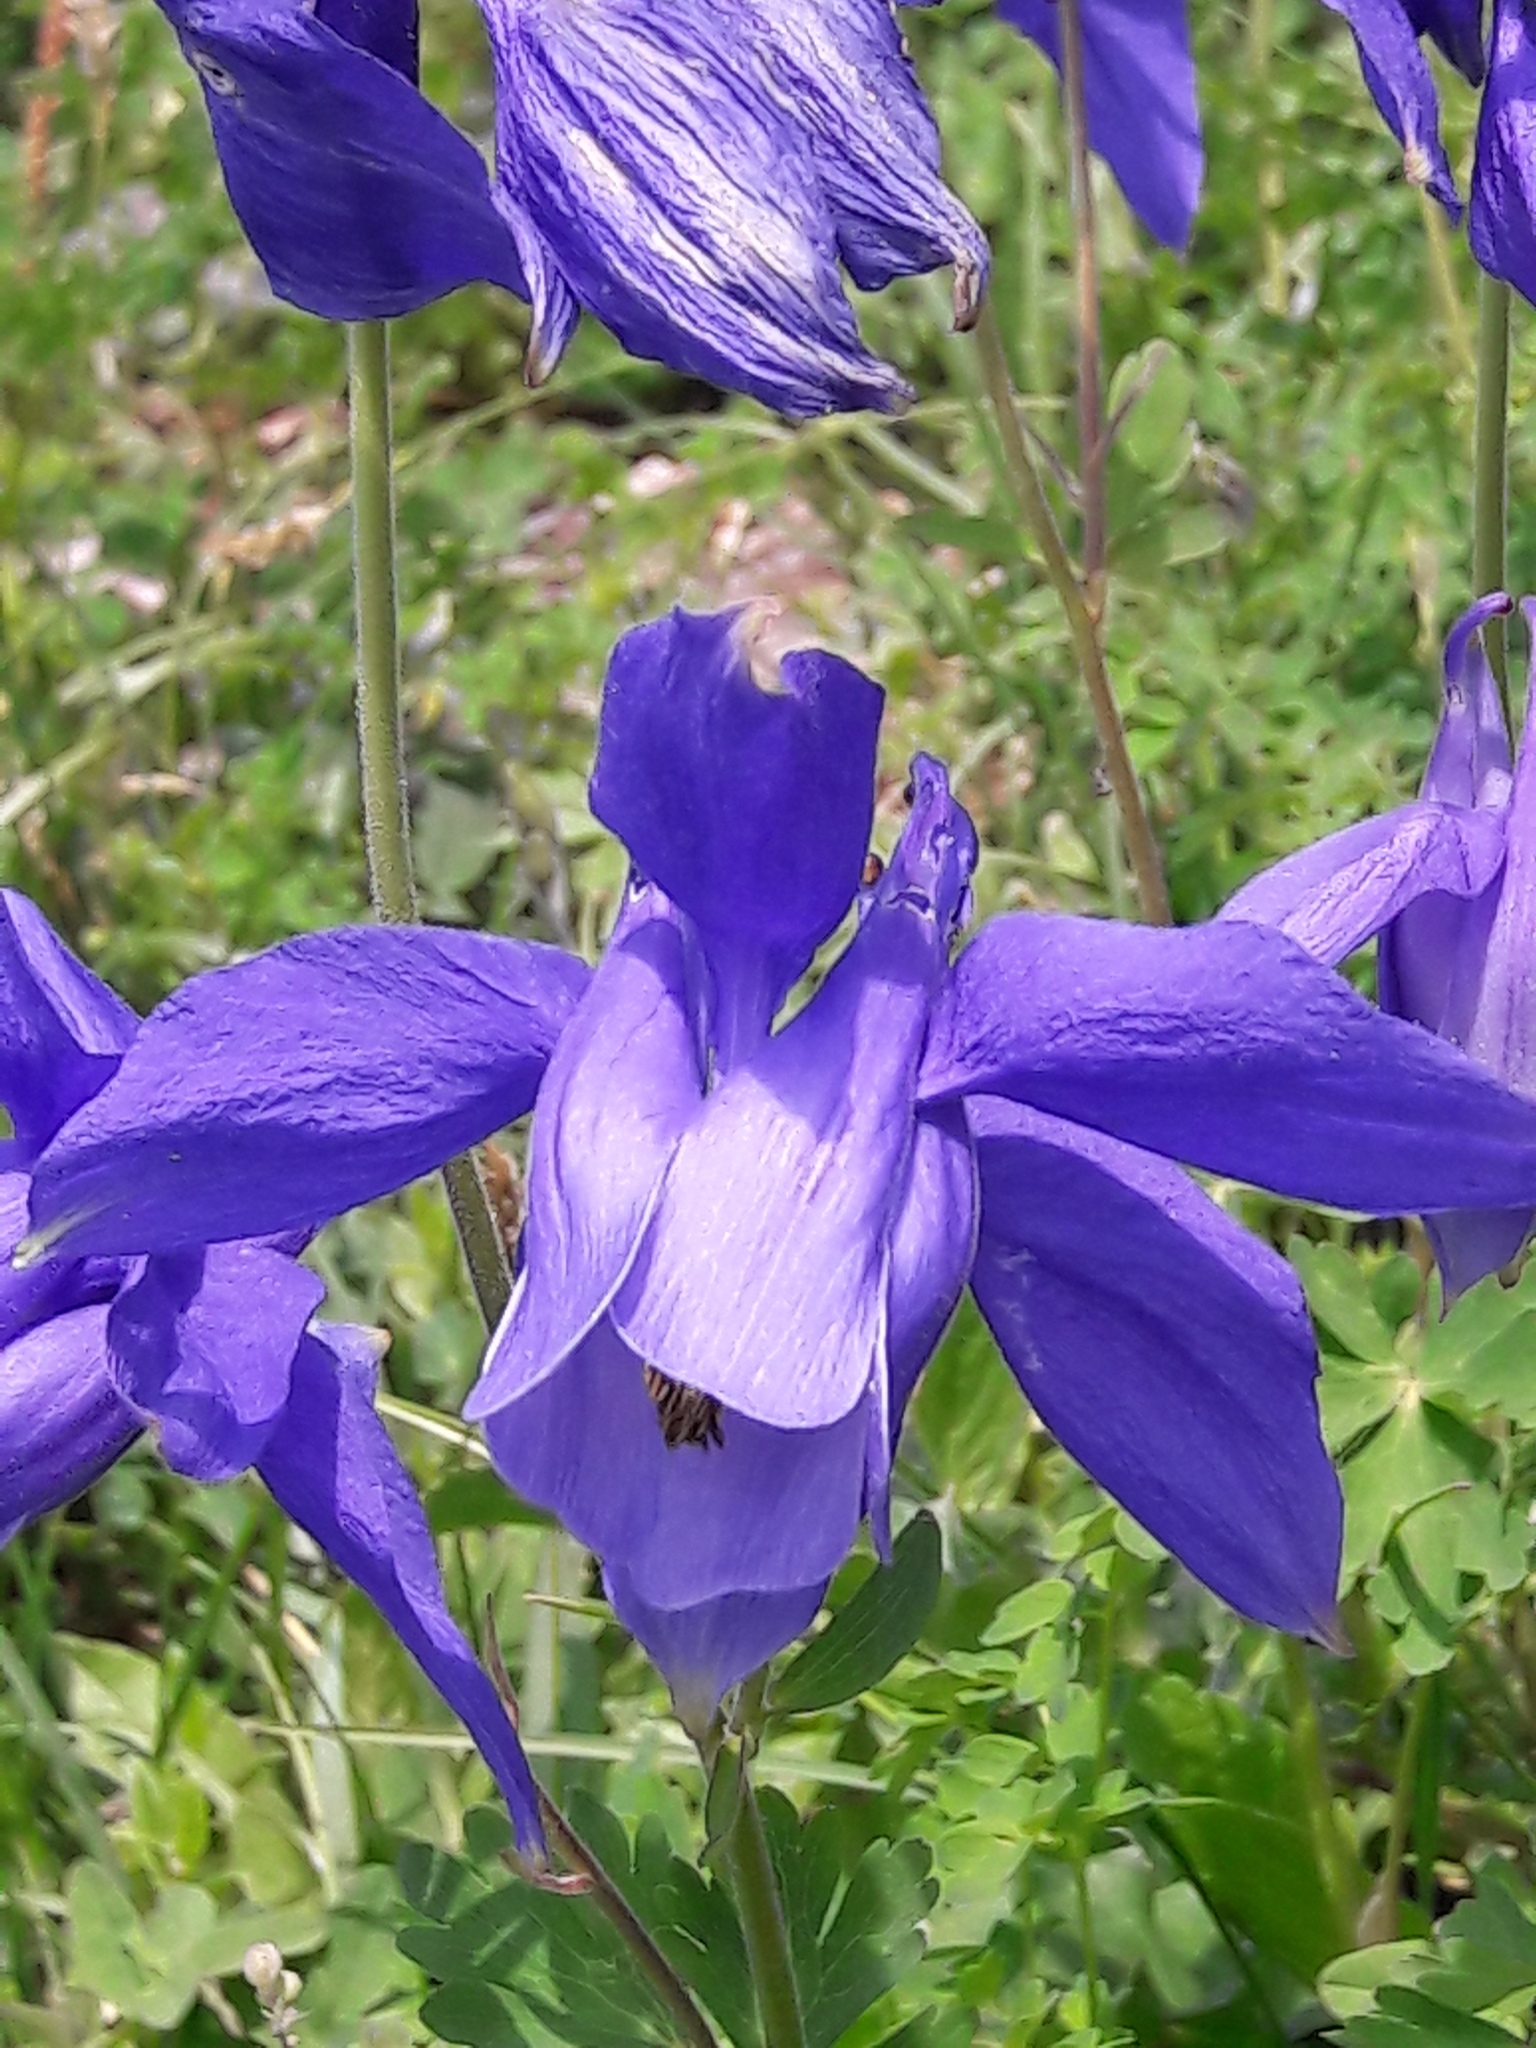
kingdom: Plantae
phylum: Tracheophyta
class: Magnoliopsida
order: Ranunculales
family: Ranunculaceae
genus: Aquilegia
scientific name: Aquilegia alpina
